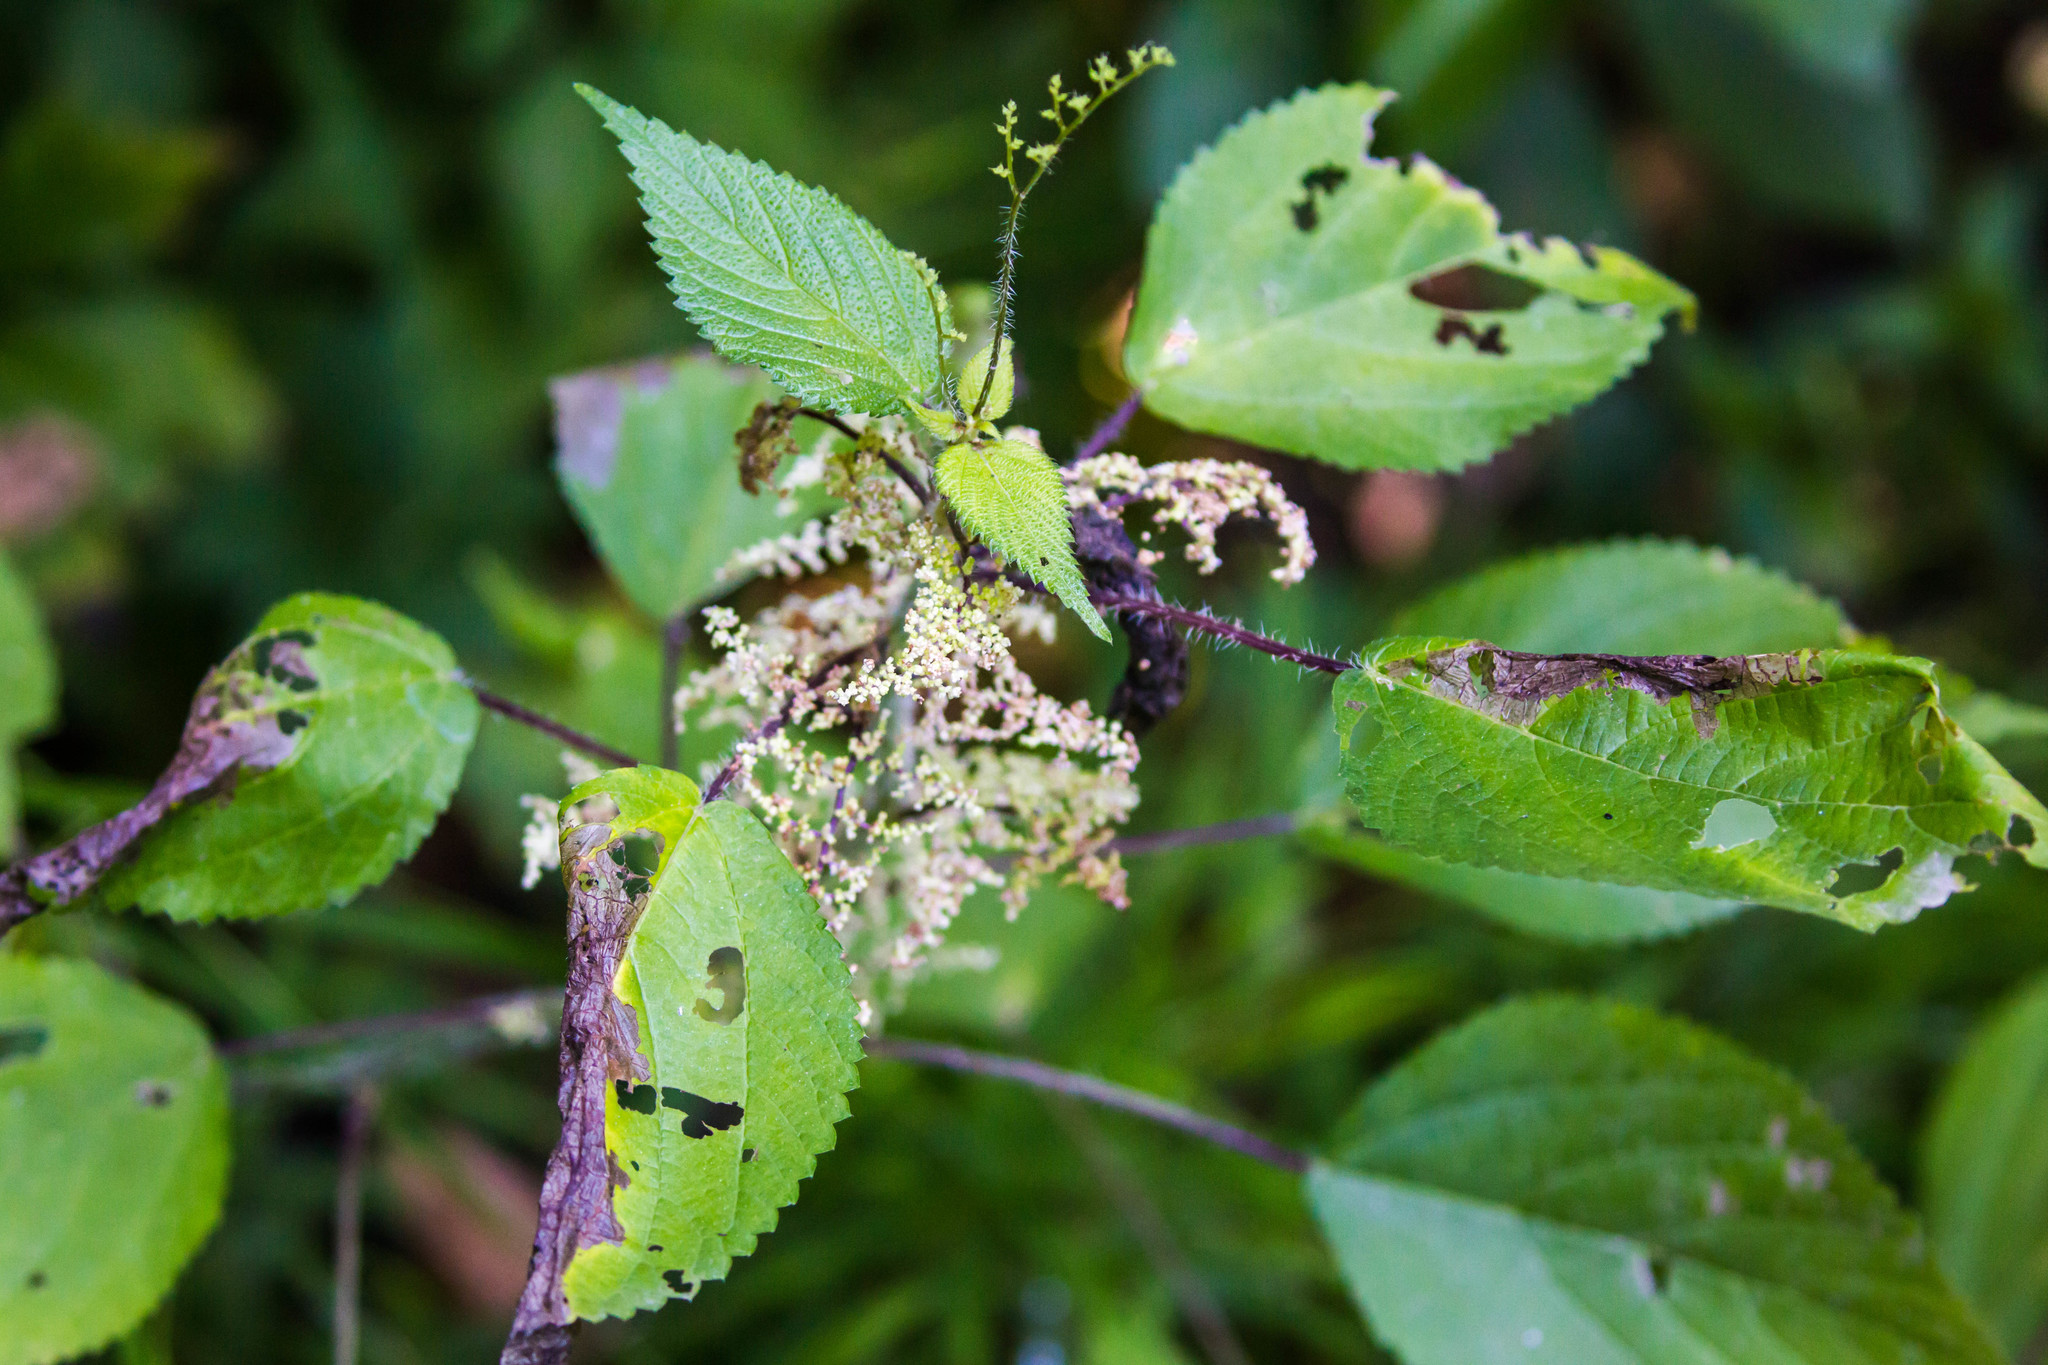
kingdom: Plantae
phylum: Tracheophyta
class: Magnoliopsida
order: Rosales
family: Urticaceae
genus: Laportea
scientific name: Laportea canadensis
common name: Canada nettle
